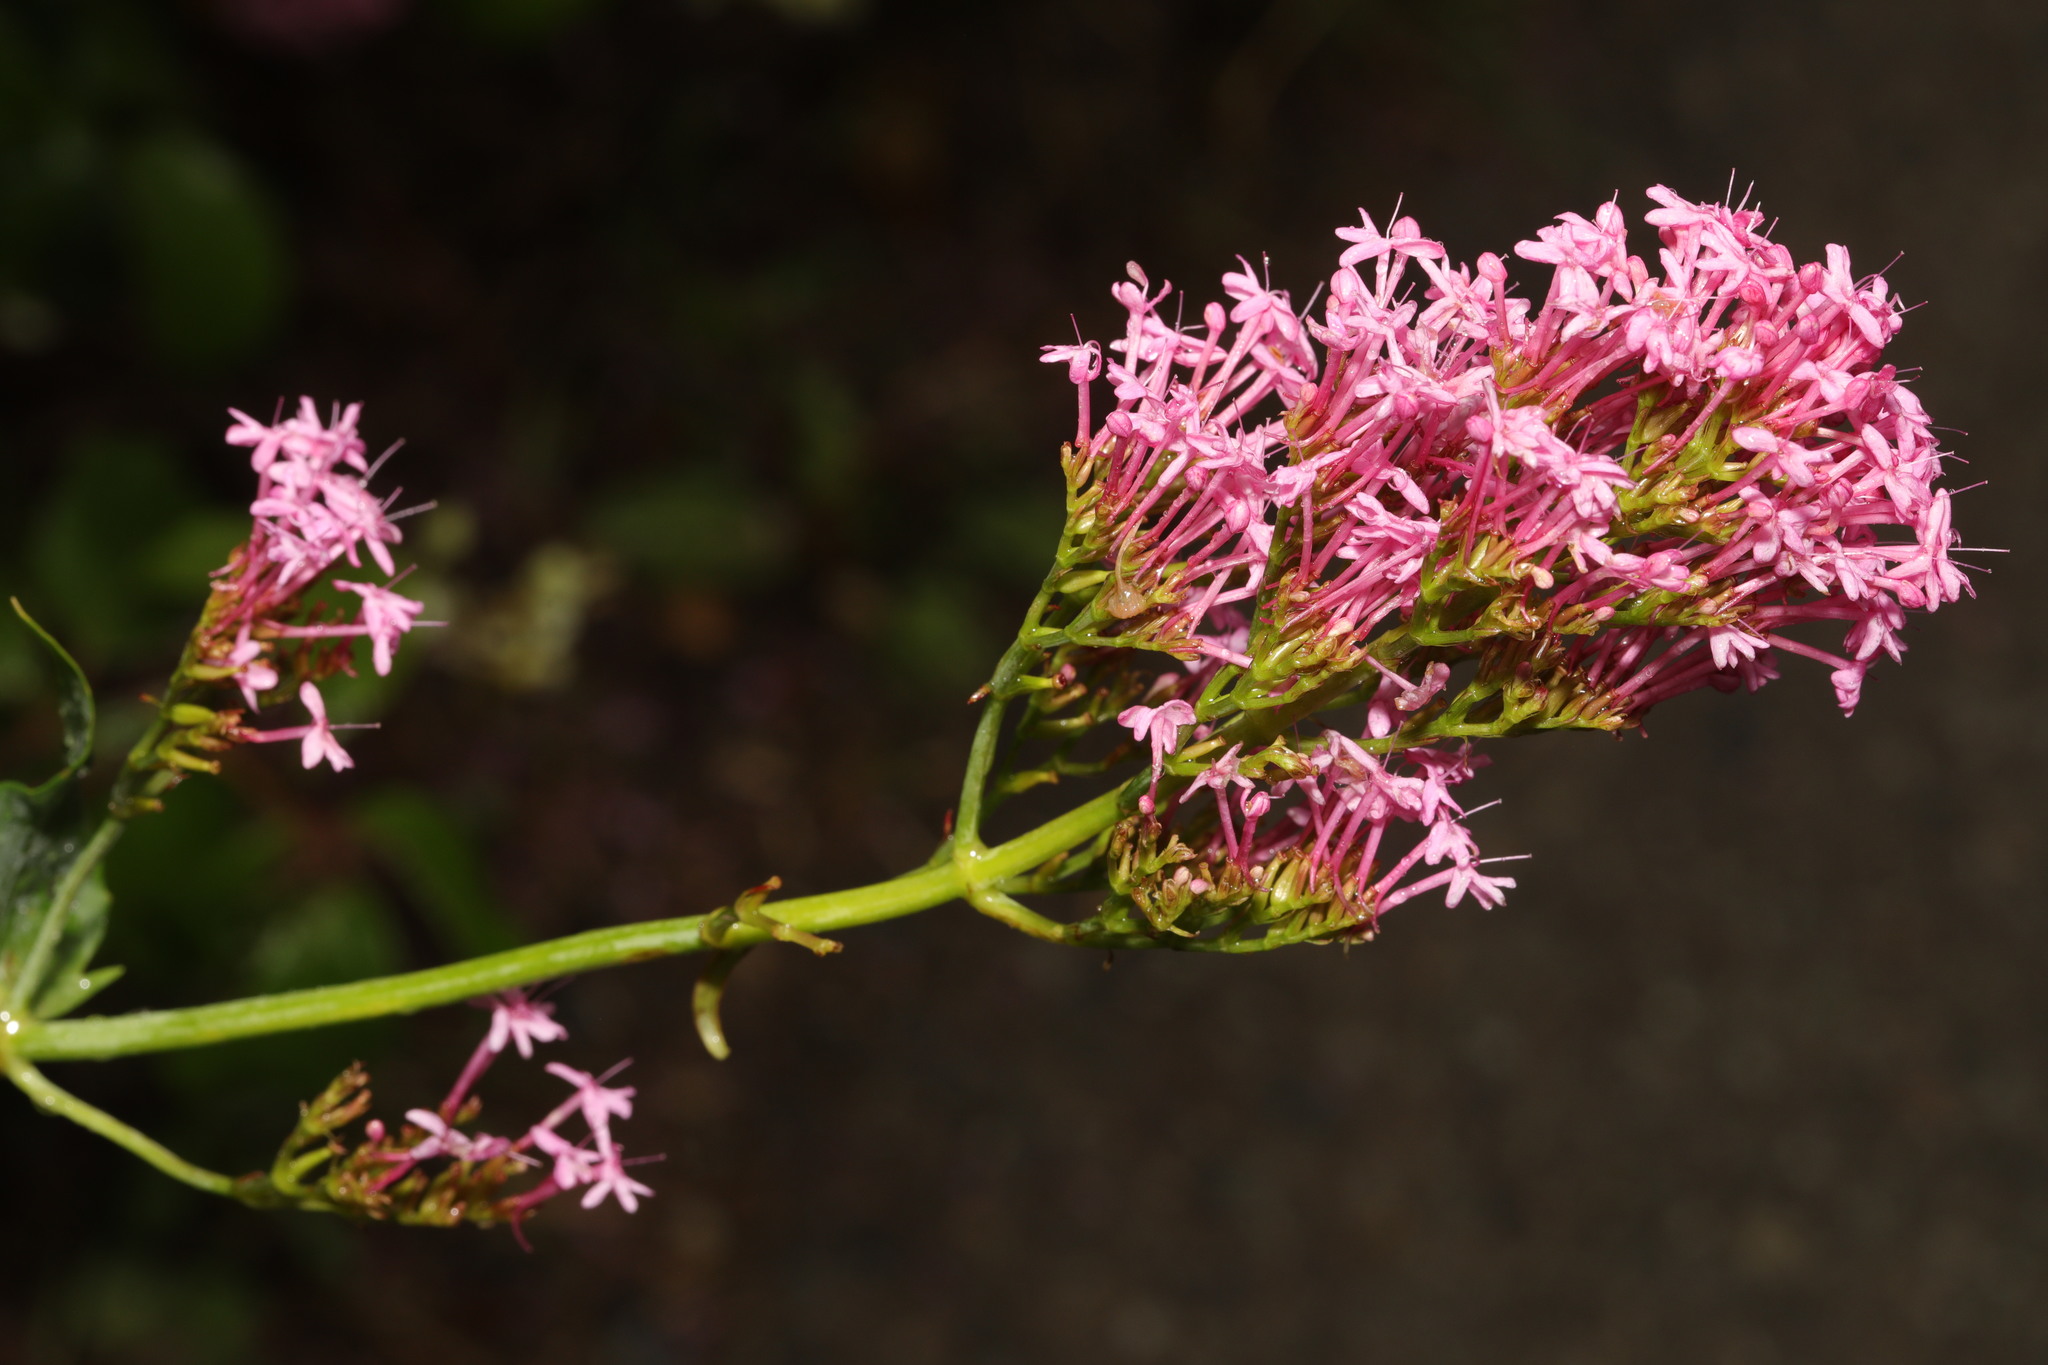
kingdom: Plantae
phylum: Tracheophyta
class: Magnoliopsida
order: Dipsacales
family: Caprifoliaceae
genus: Centranthus
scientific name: Centranthus ruber
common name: Red valerian
